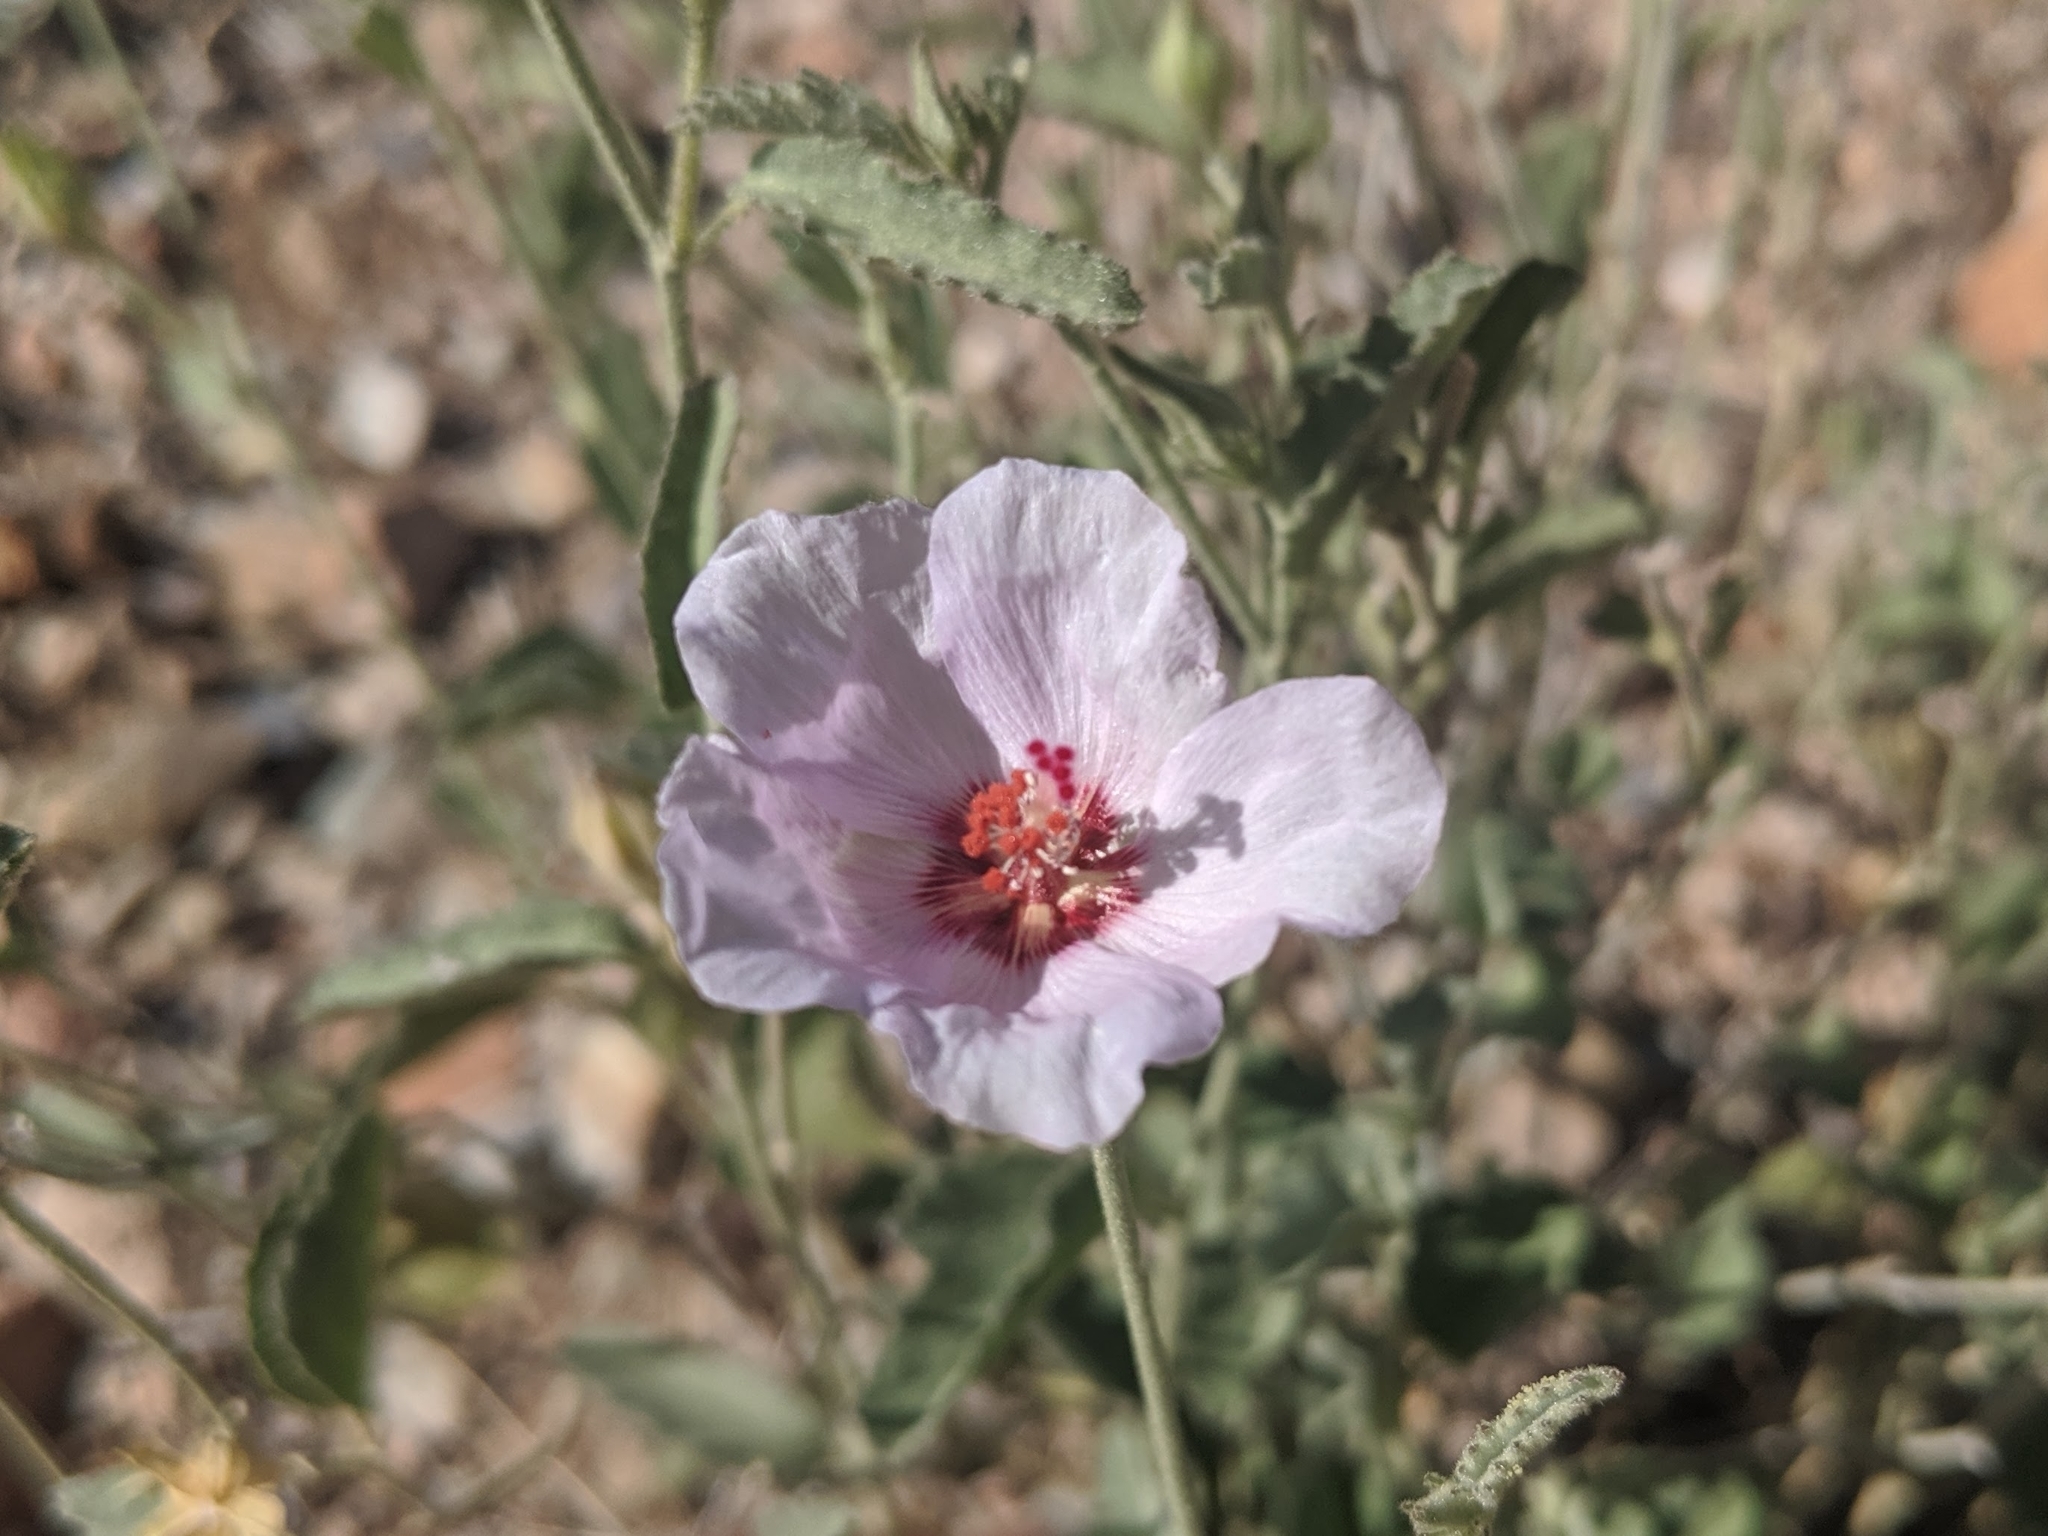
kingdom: Plantae
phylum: Tracheophyta
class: Magnoliopsida
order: Malvales
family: Malvaceae
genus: Hibiscus
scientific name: Hibiscus denudatus
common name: Paleface
